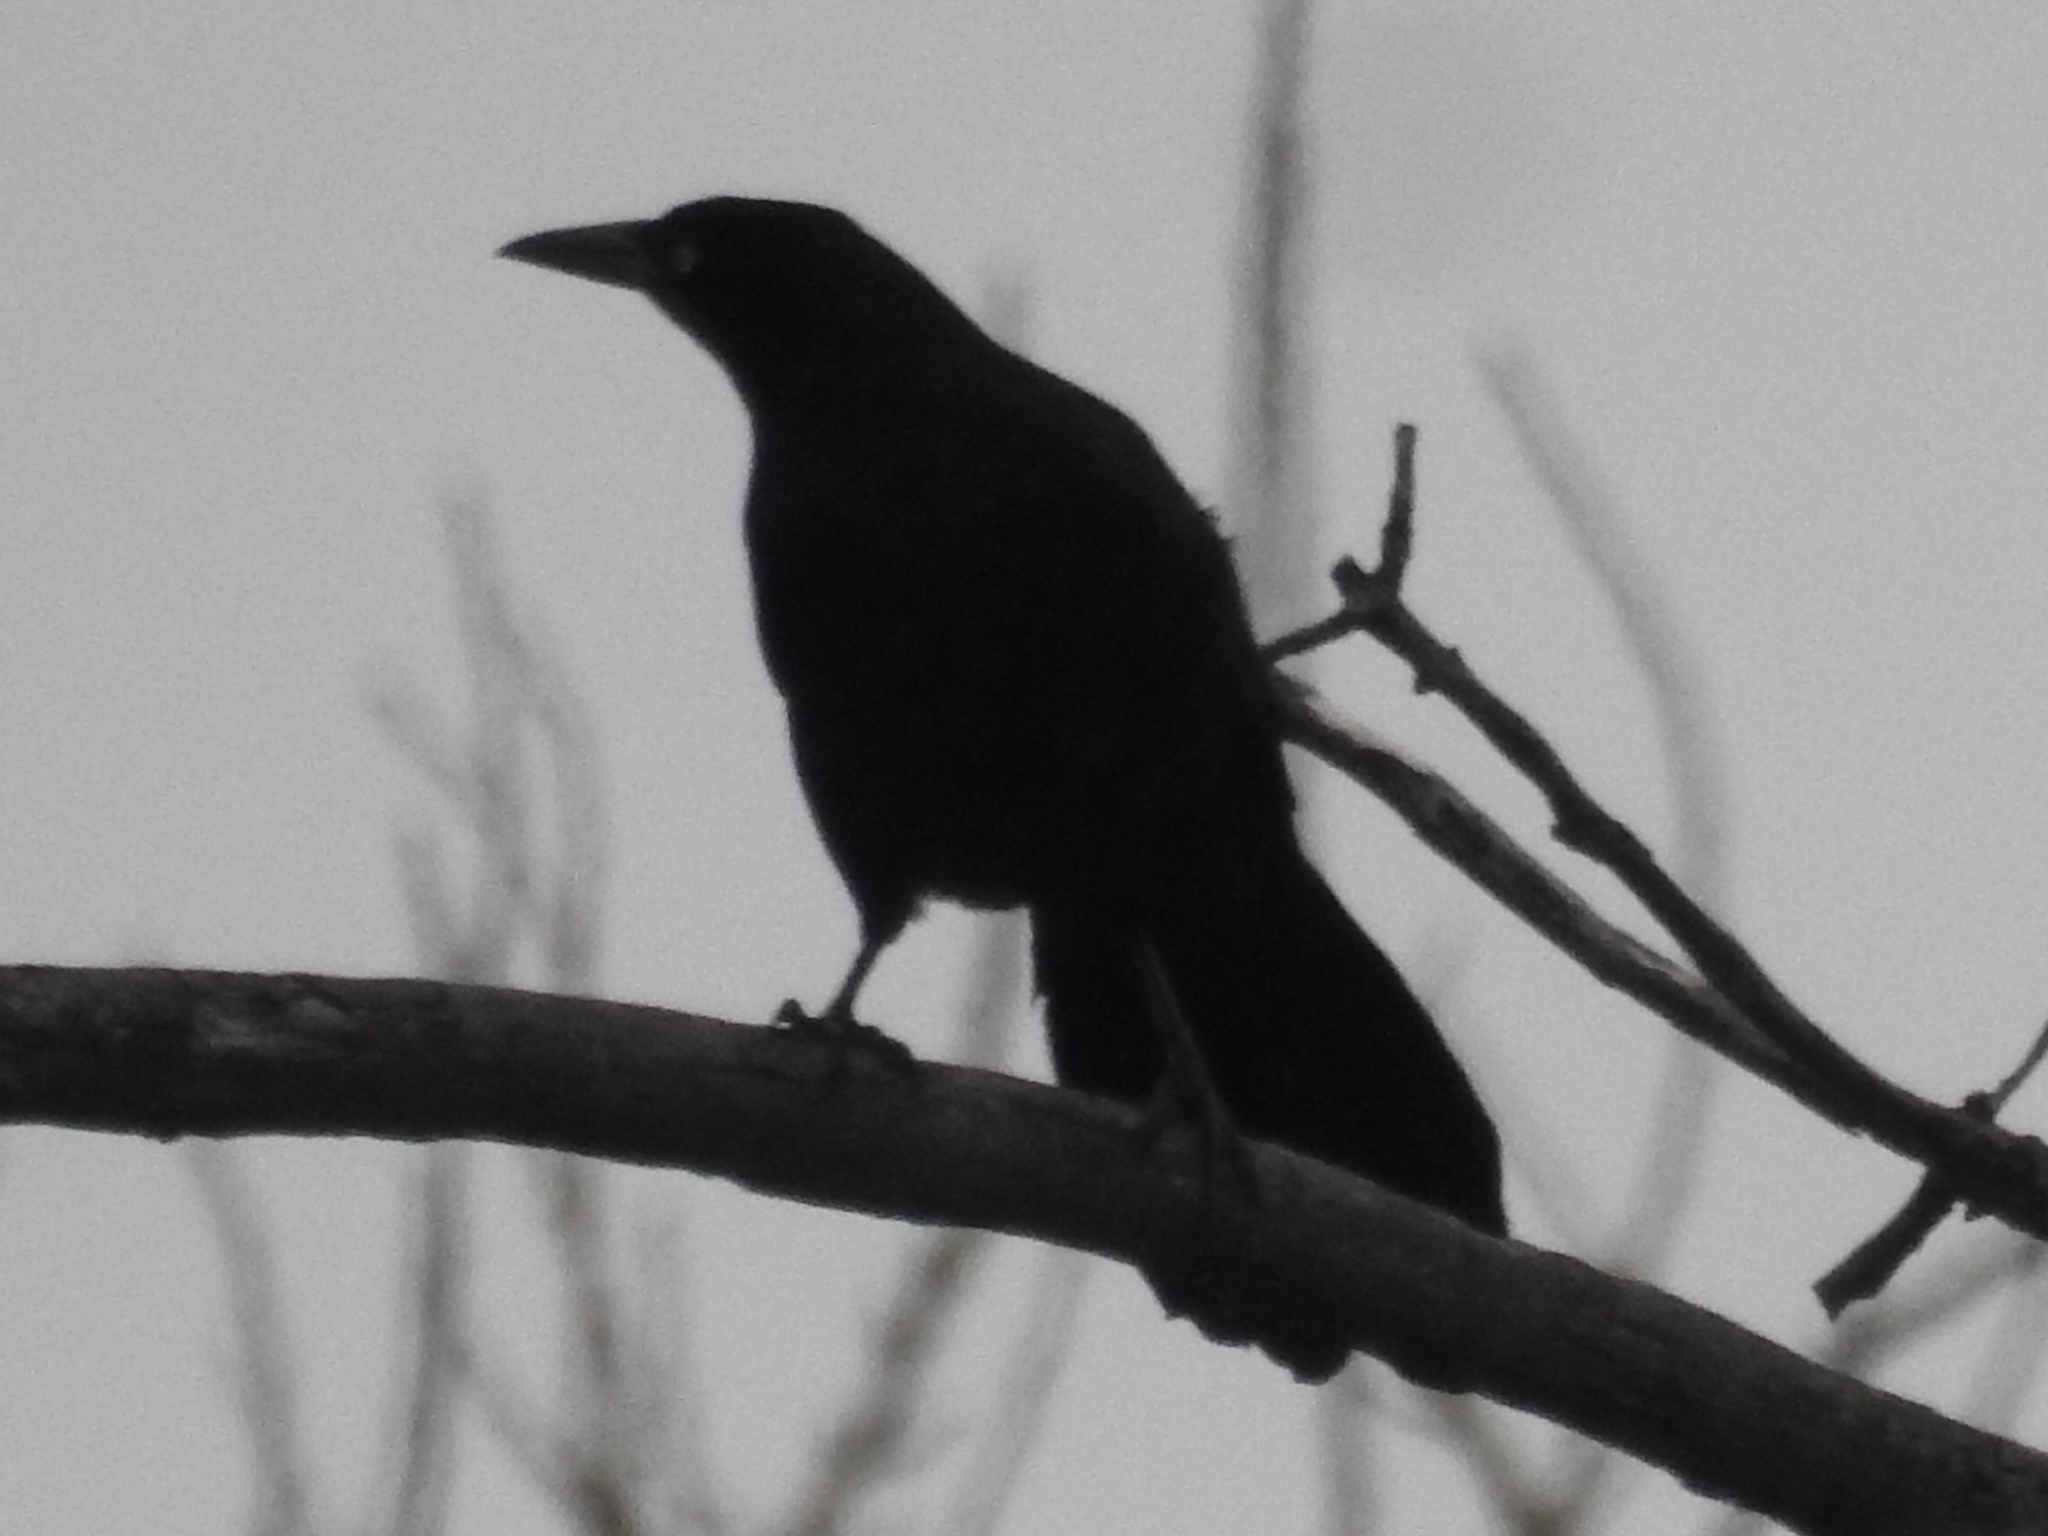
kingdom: Animalia
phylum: Chordata
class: Aves
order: Passeriformes
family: Icteridae
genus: Quiscalus
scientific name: Quiscalus mexicanus
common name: Great-tailed grackle
